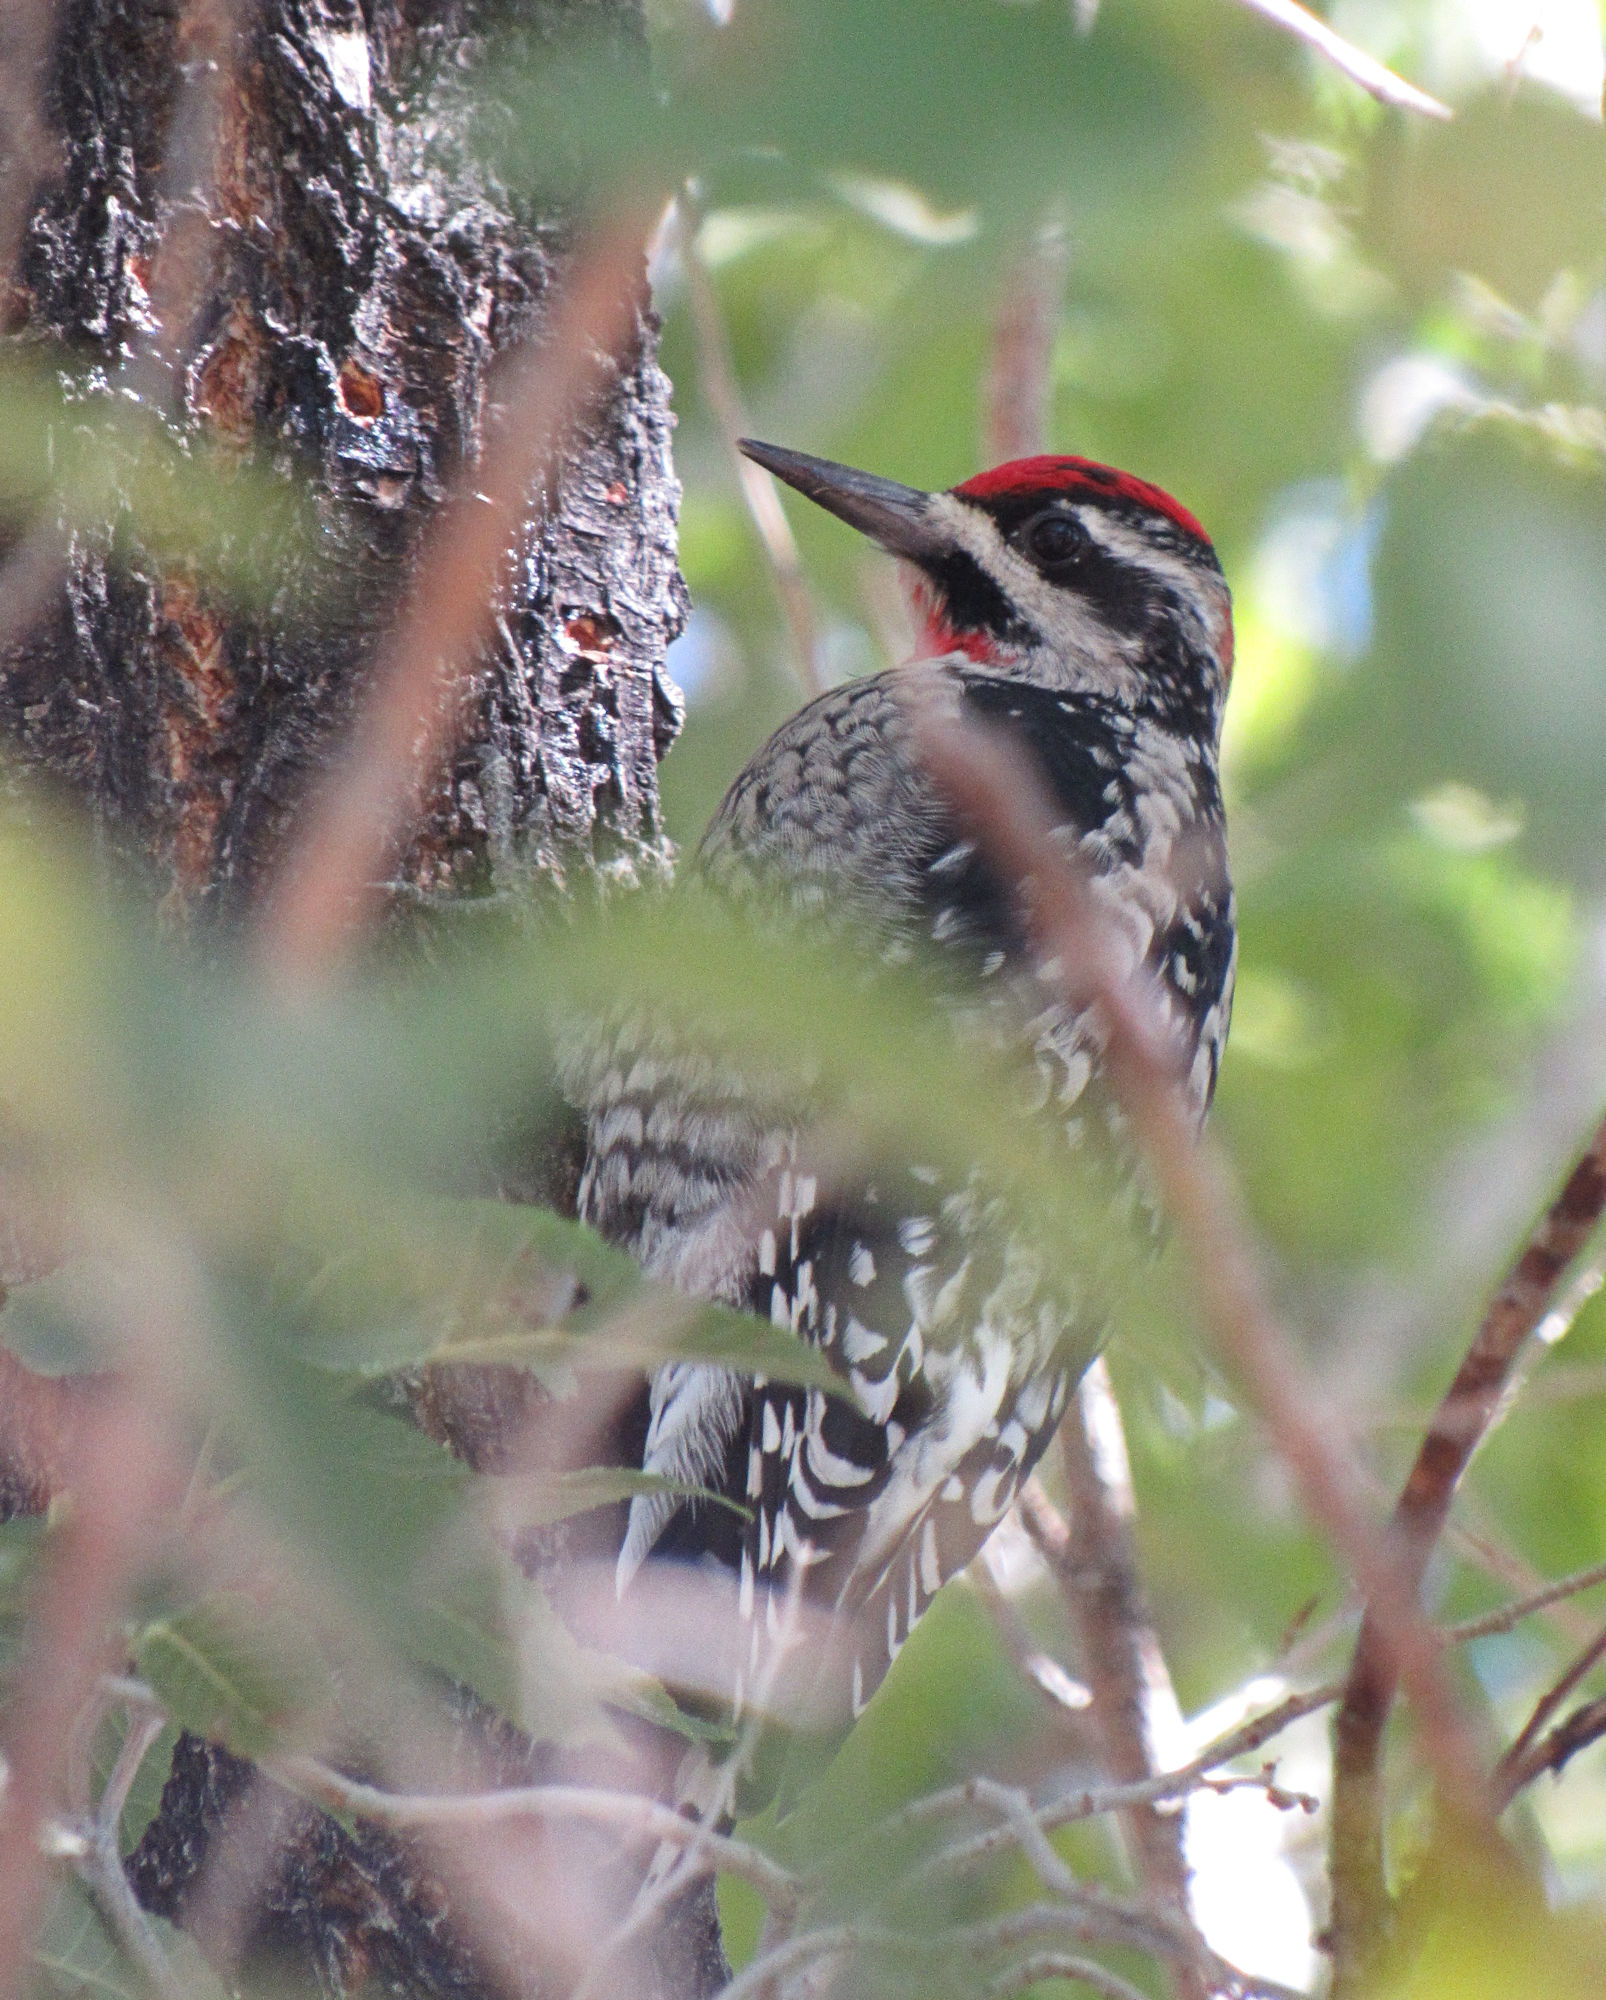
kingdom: Animalia
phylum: Chordata
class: Aves
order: Piciformes
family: Picidae
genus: Sphyrapicus
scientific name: Sphyrapicus nuchalis
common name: Red-naped sapsucker
